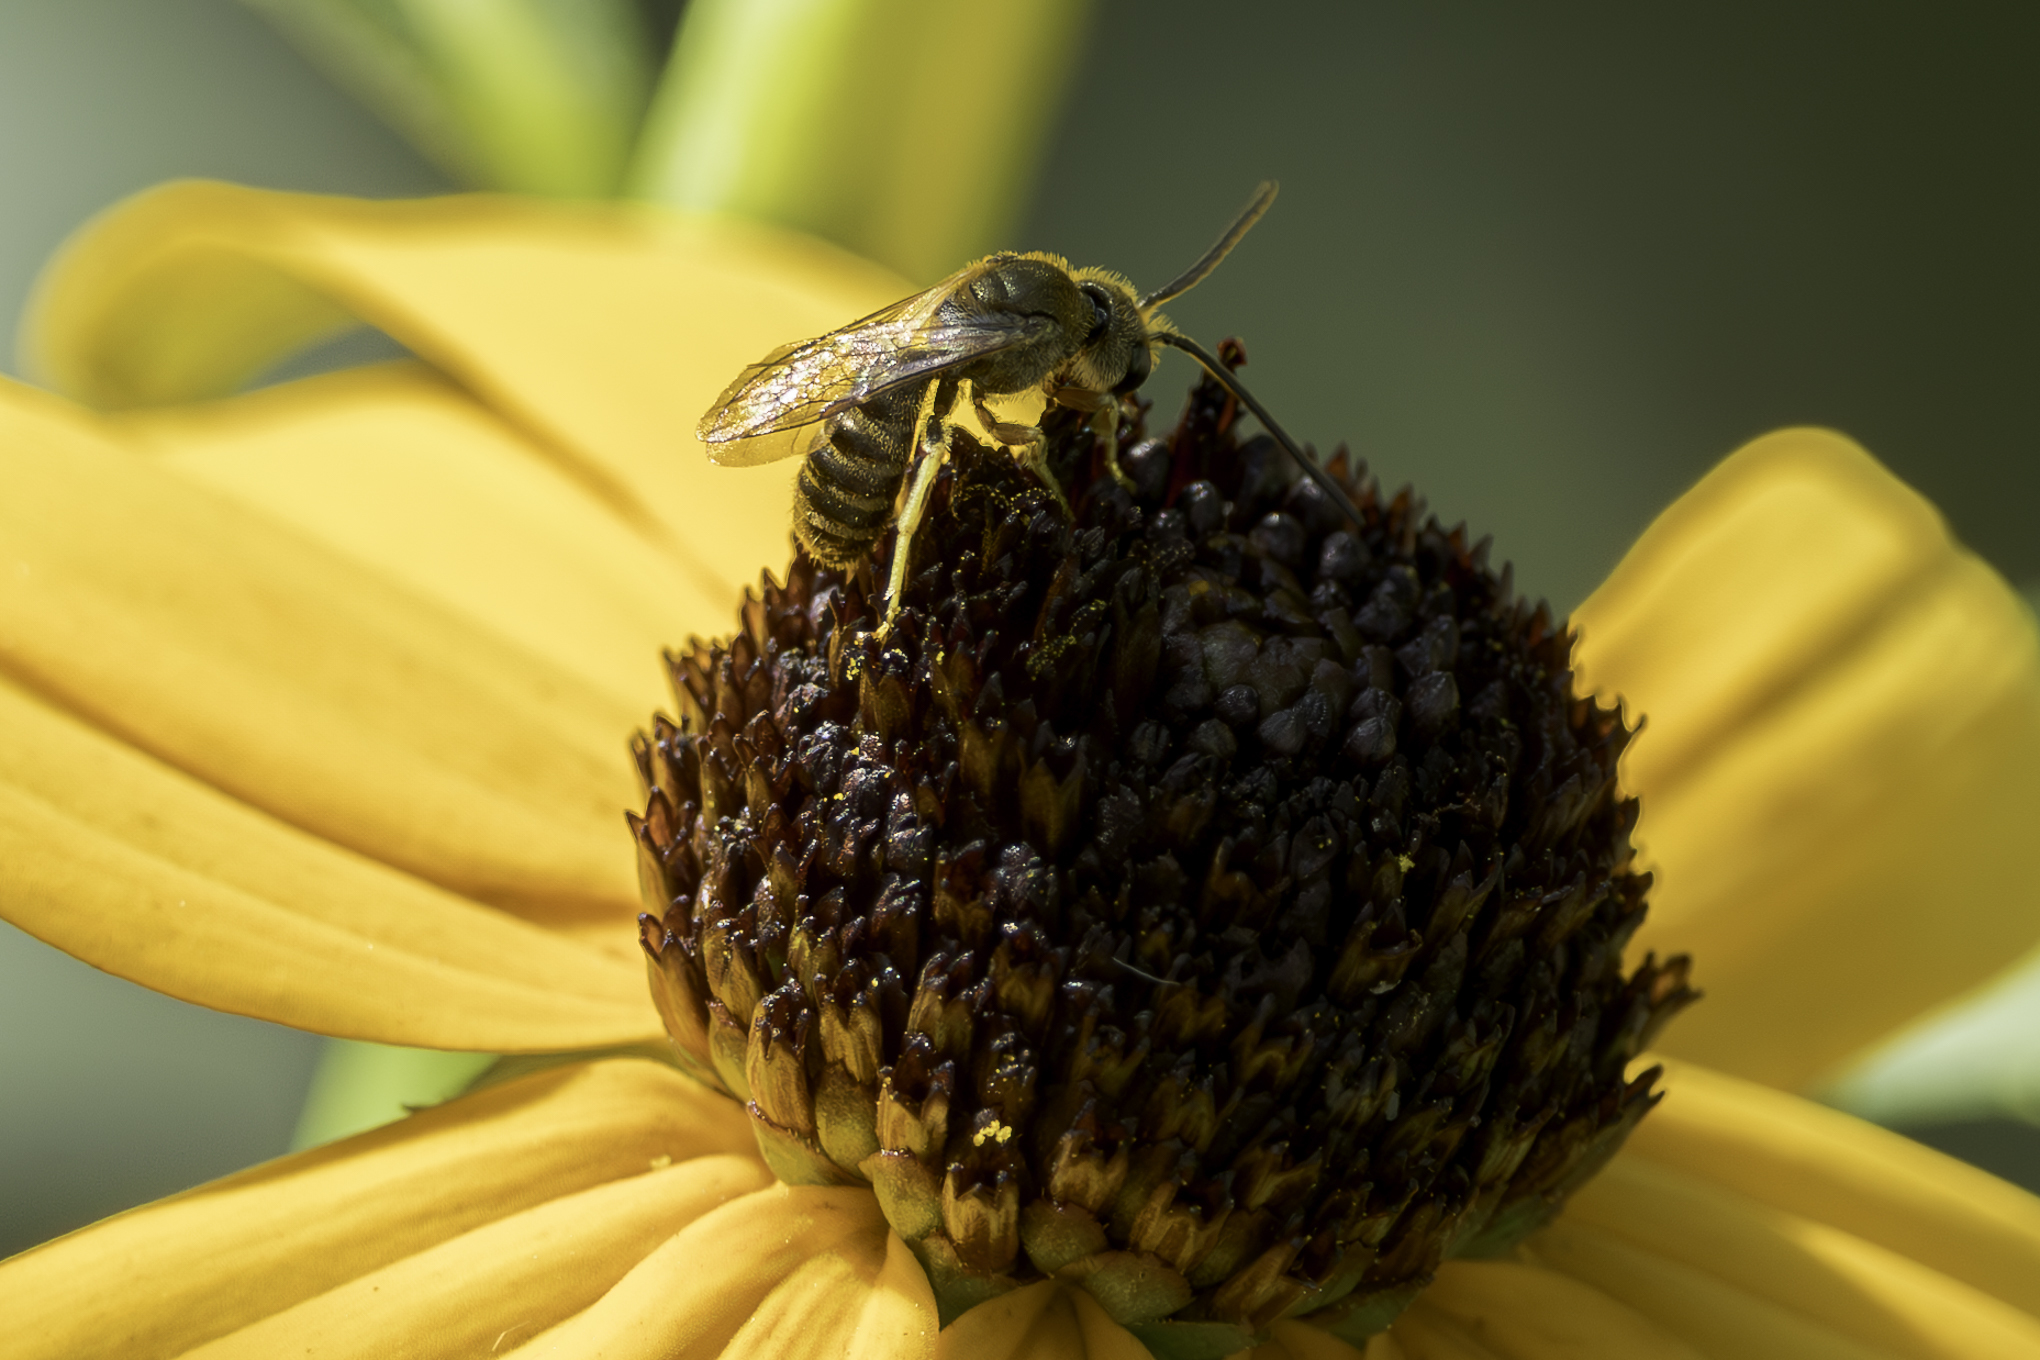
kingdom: Animalia
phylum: Arthropoda
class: Insecta
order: Hymenoptera
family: Halictidae
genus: Halictus
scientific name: Halictus confusus
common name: Southern bronze furrow bee
